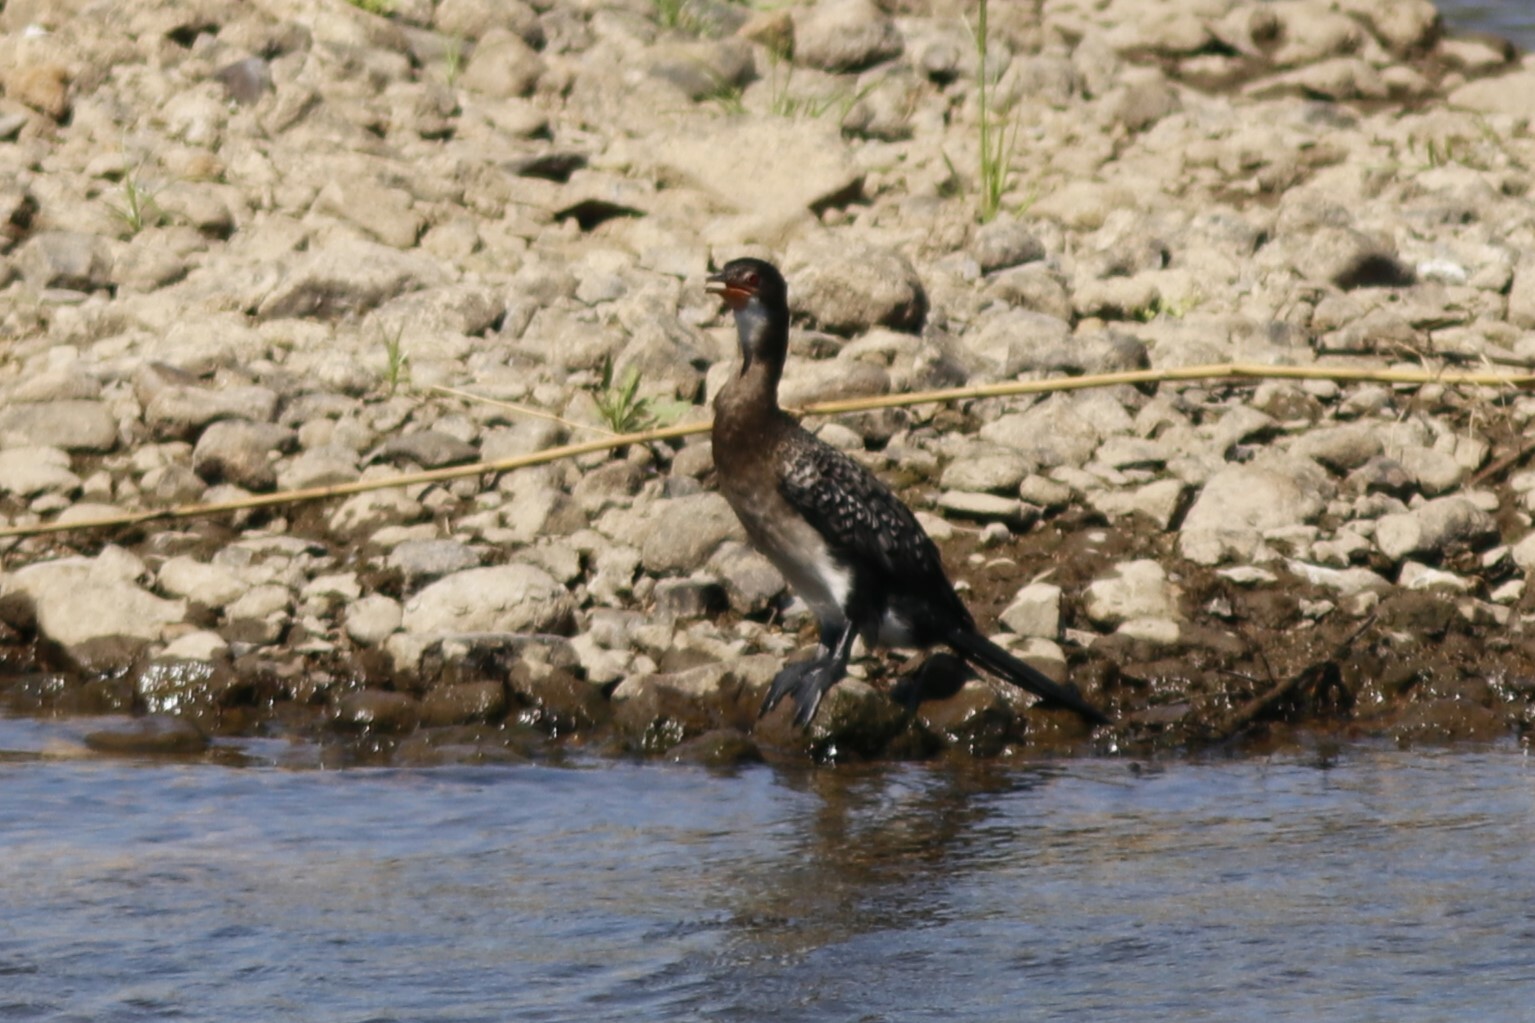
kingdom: Animalia
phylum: Chordata
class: Aves
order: Suliformes
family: Phalacrocoracidae
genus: Microcarbo
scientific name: Microcarbo africanus
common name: Long-tailed cormorant
